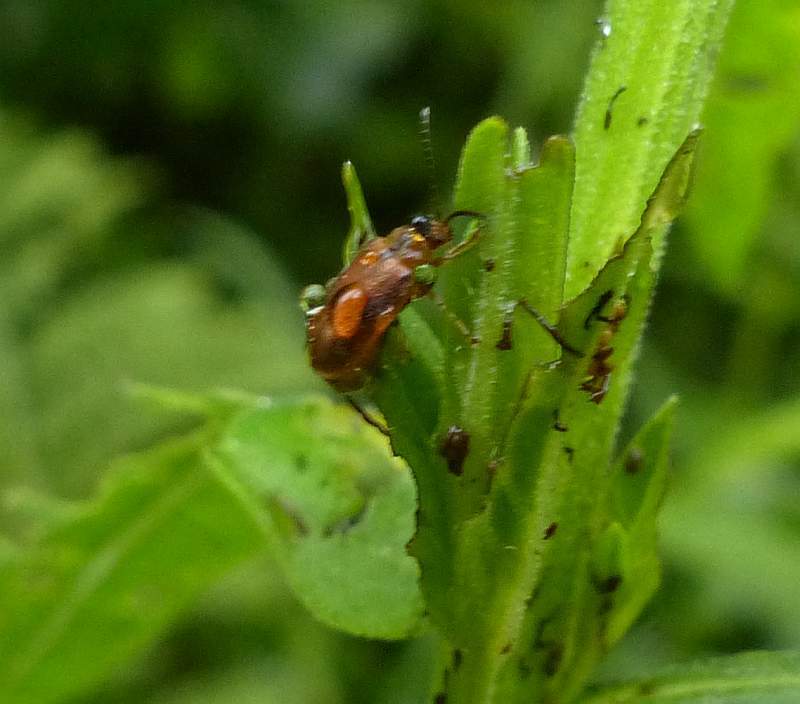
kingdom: Animalia
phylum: Arthropoda
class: Insecta
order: Coleoptera
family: Chrysomelidae
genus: Neogalerucella
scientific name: Neogalerucella calmariensis
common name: Black-margined loosestrife beetle
